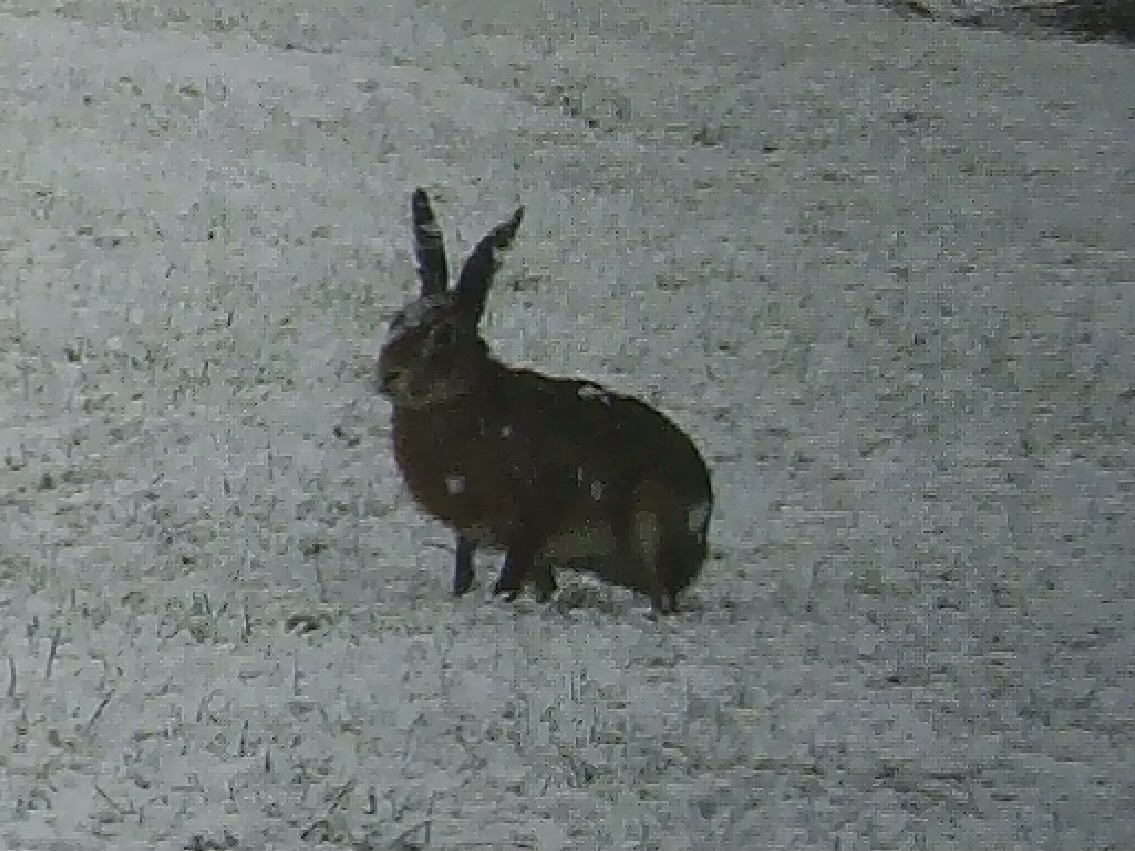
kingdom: Animalia
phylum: Chordata
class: Mammalia
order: Lagomorpha
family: Leporidae
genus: Lepus
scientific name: Lepus europaeus
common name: European hare
